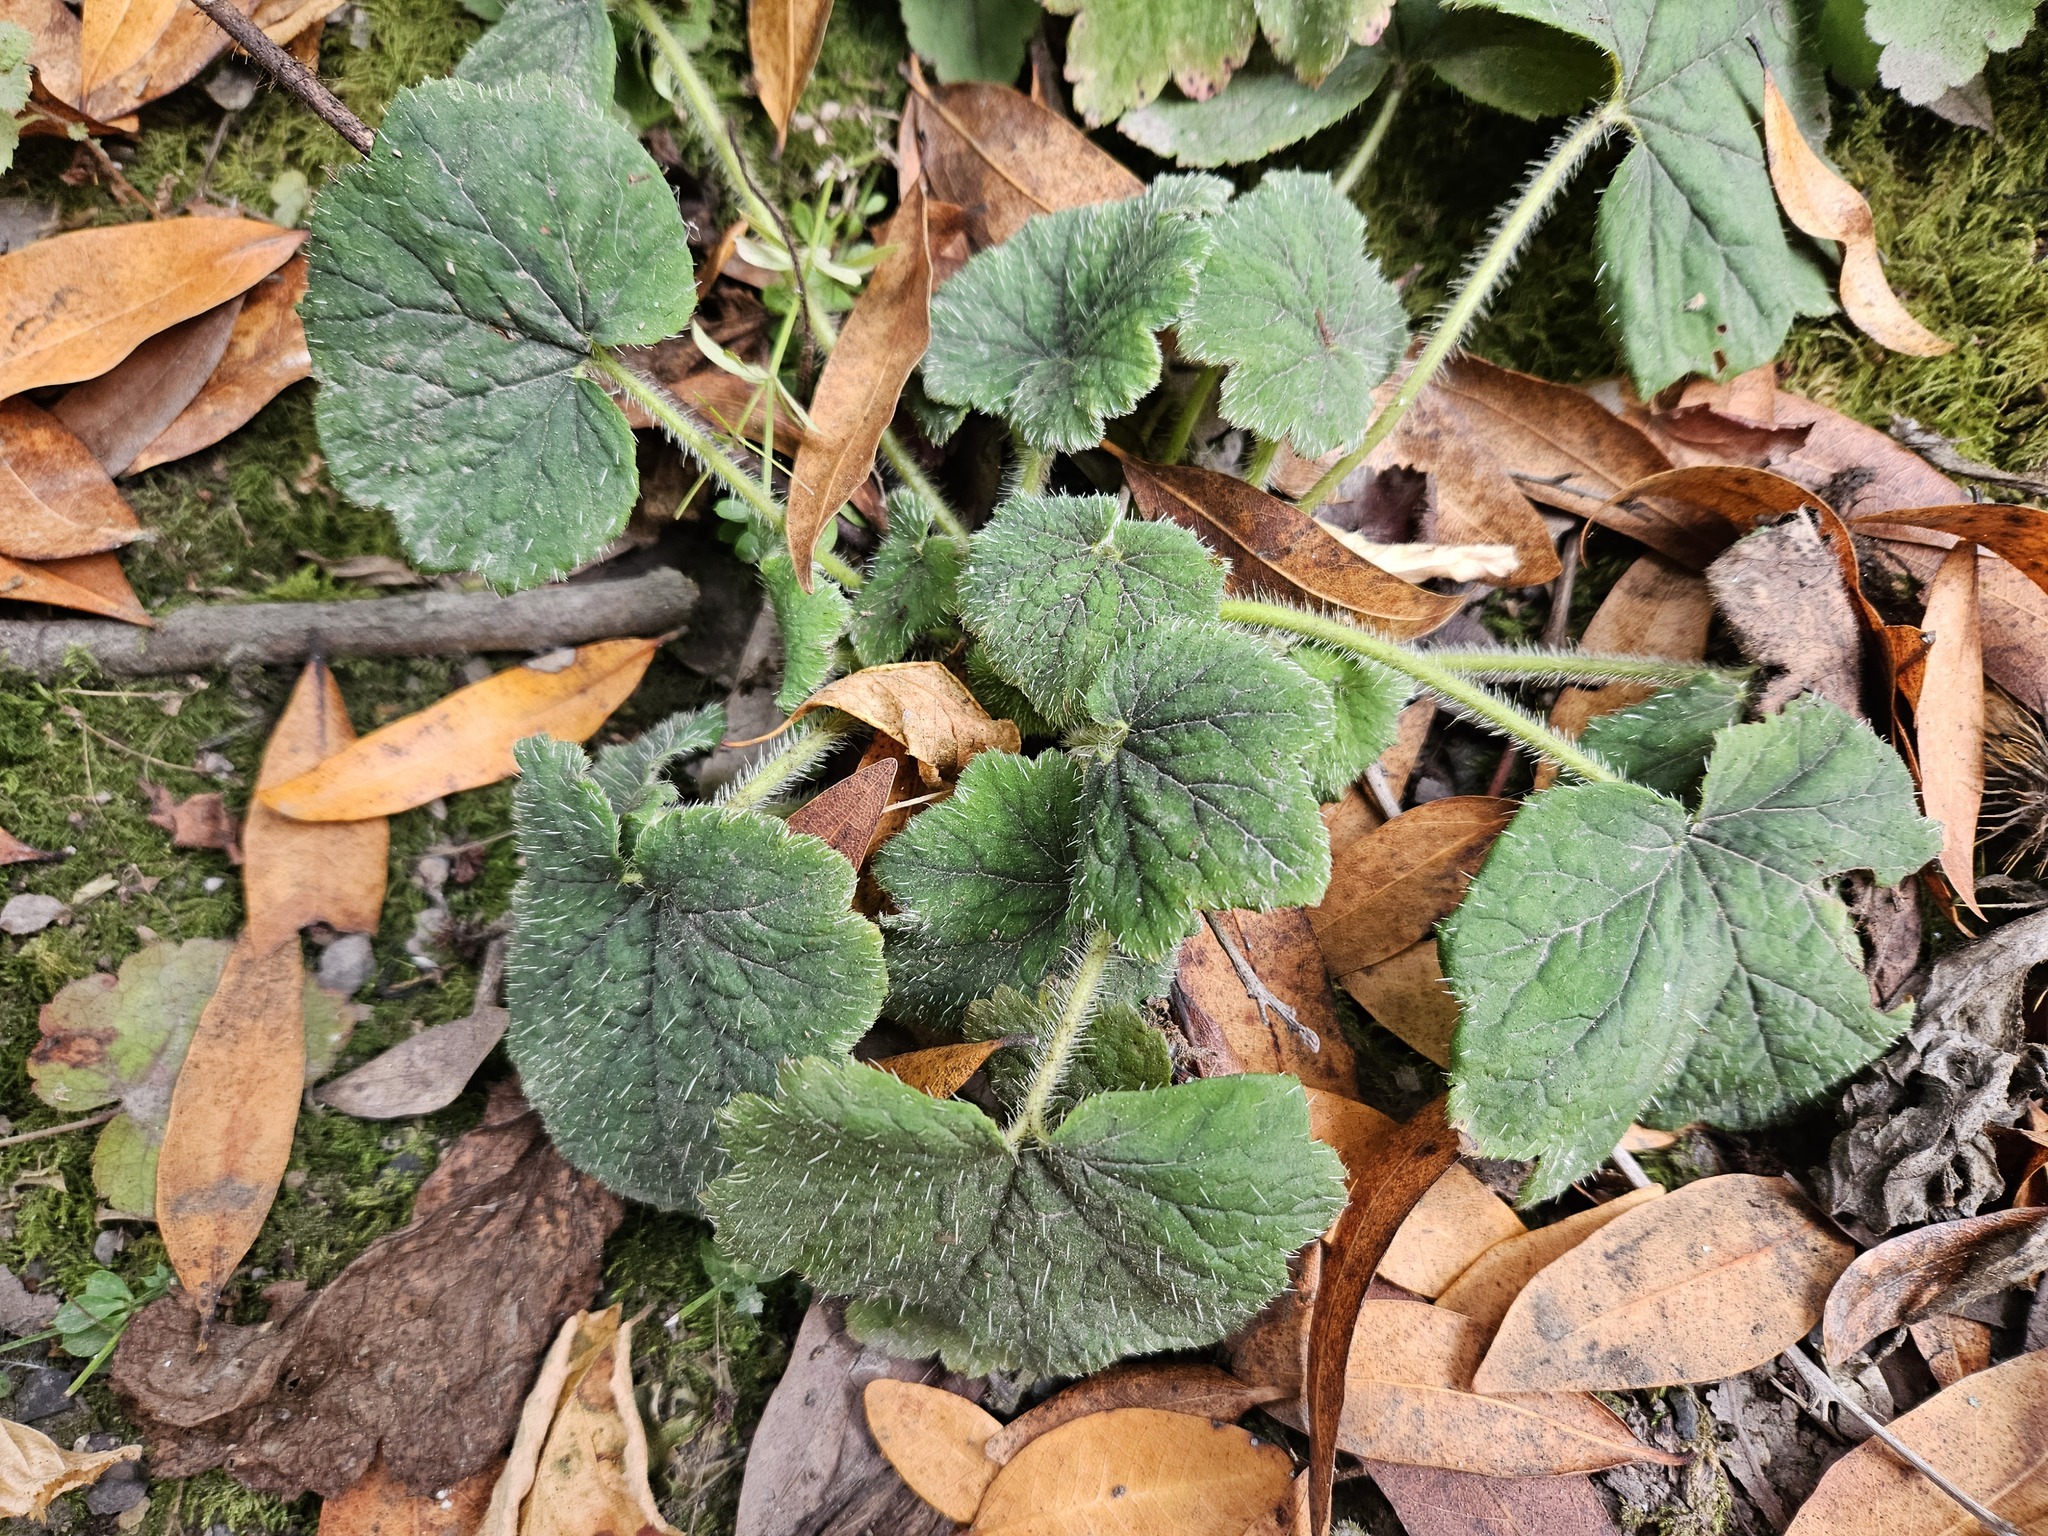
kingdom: Plantae
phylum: Tracheophyta
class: Magnoliopsida
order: Saxifragales
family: Saxifragaceae
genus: Tellima
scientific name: Tellima grandiflora
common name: Fringecups
